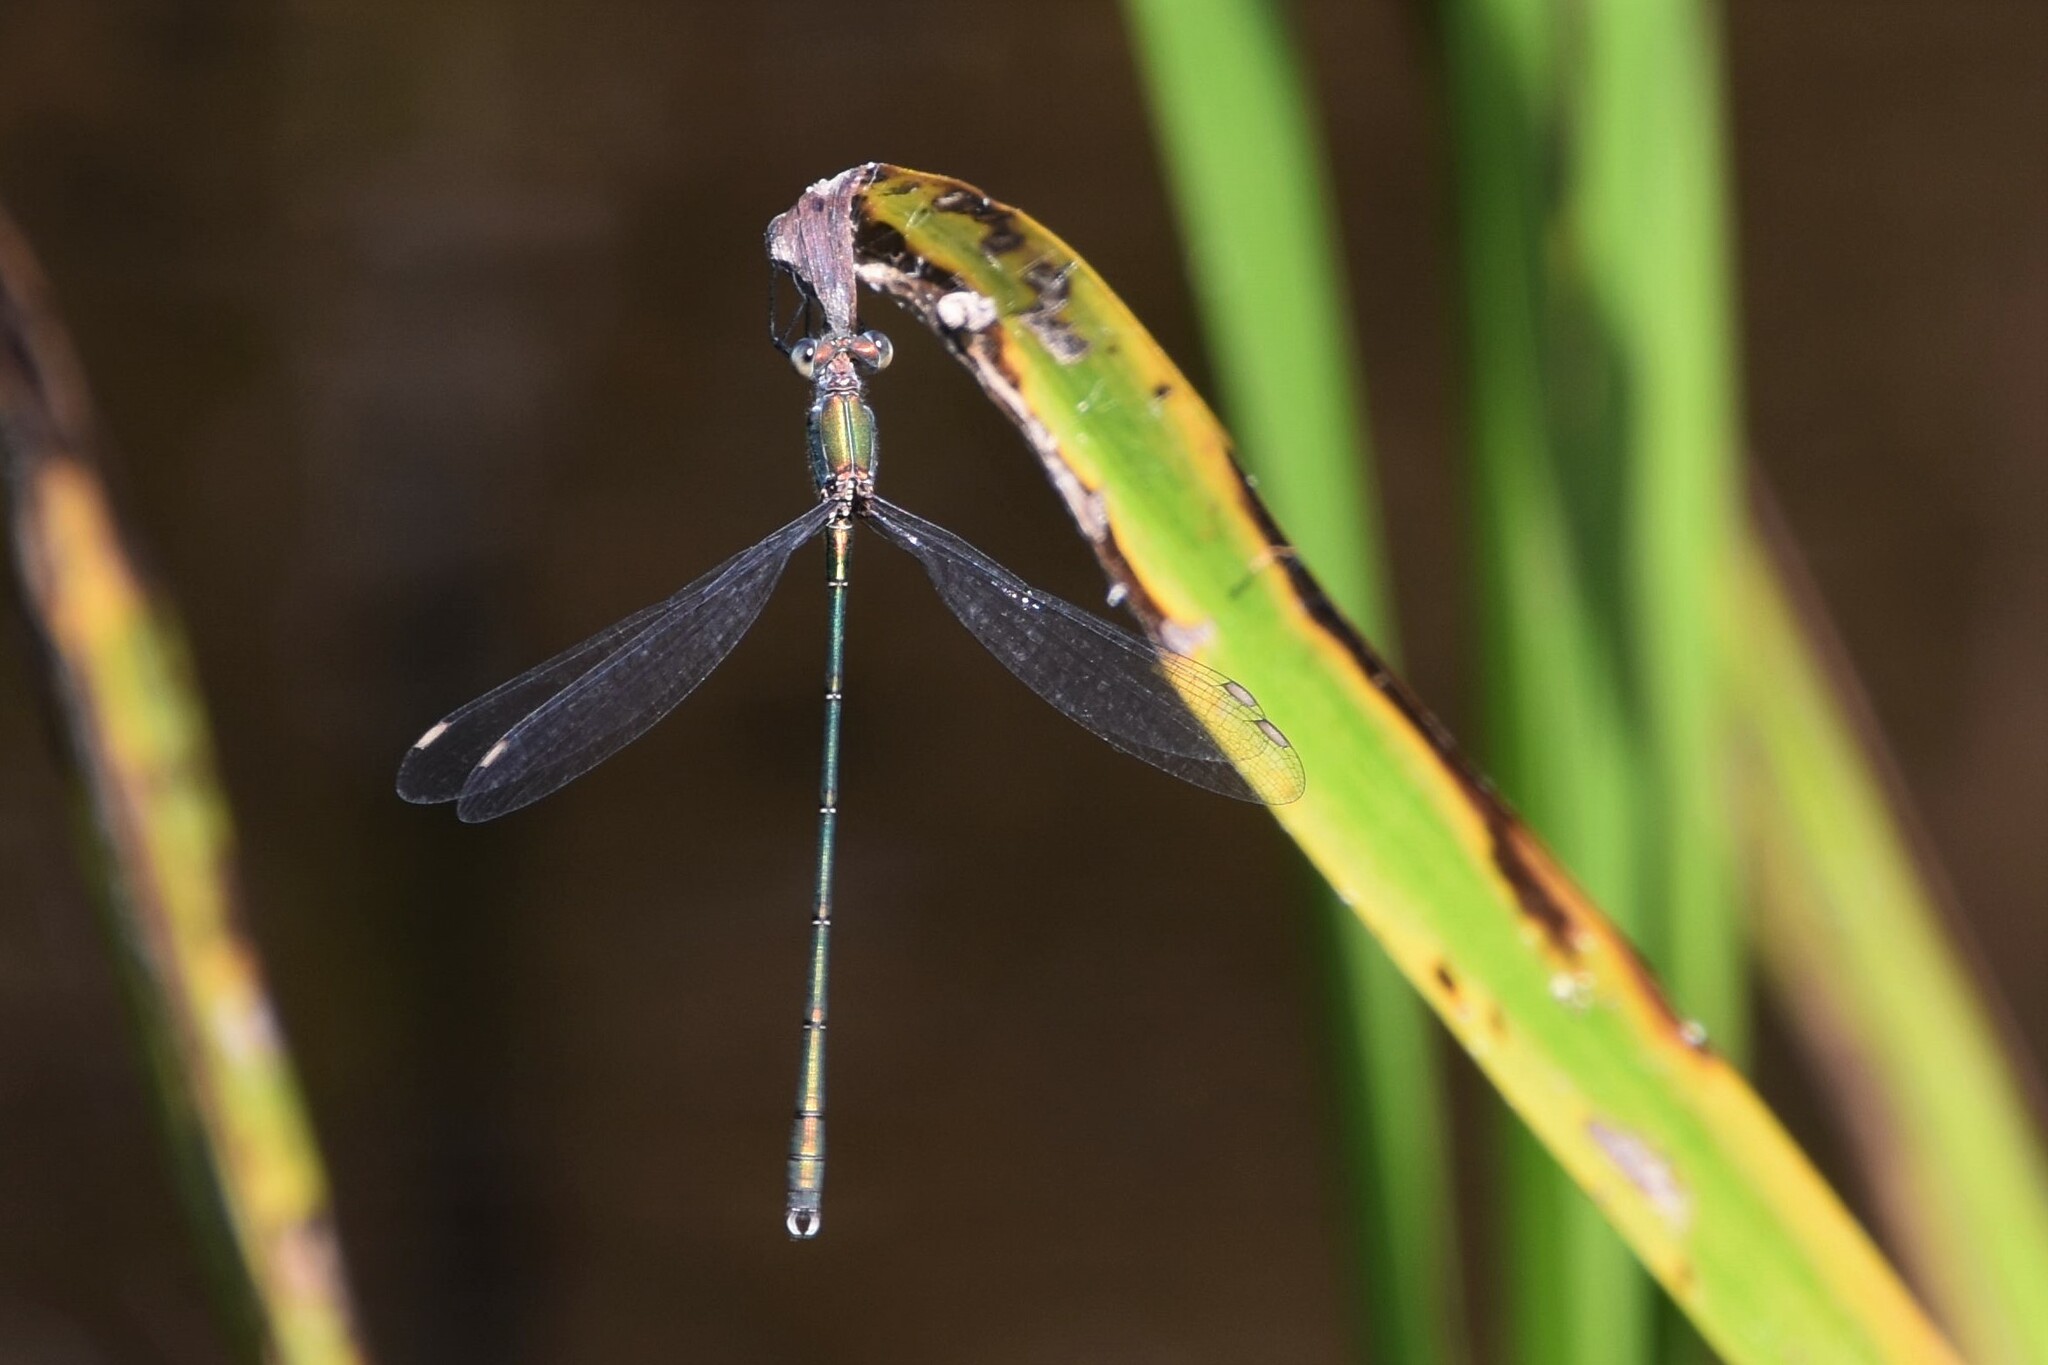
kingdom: Animalia
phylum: Arthropoda
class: Insecta
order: Odonata
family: Lestidae
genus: Chalcolestes
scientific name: Chalcolestes viridis
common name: Green emerald damselfly
